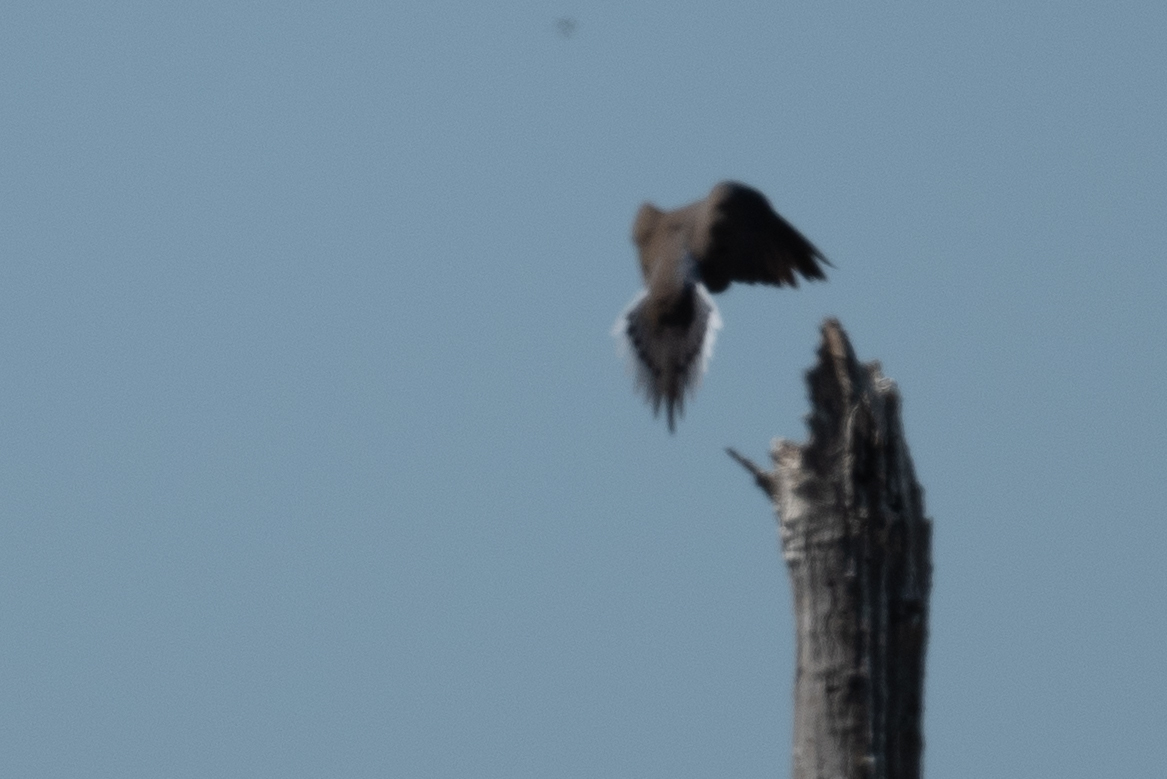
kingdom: Animalia
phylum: Chordata
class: Aves
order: Columbiformes
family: Columbidae
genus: Zenaida
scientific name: Zenaida macroura
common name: Mourning dove
